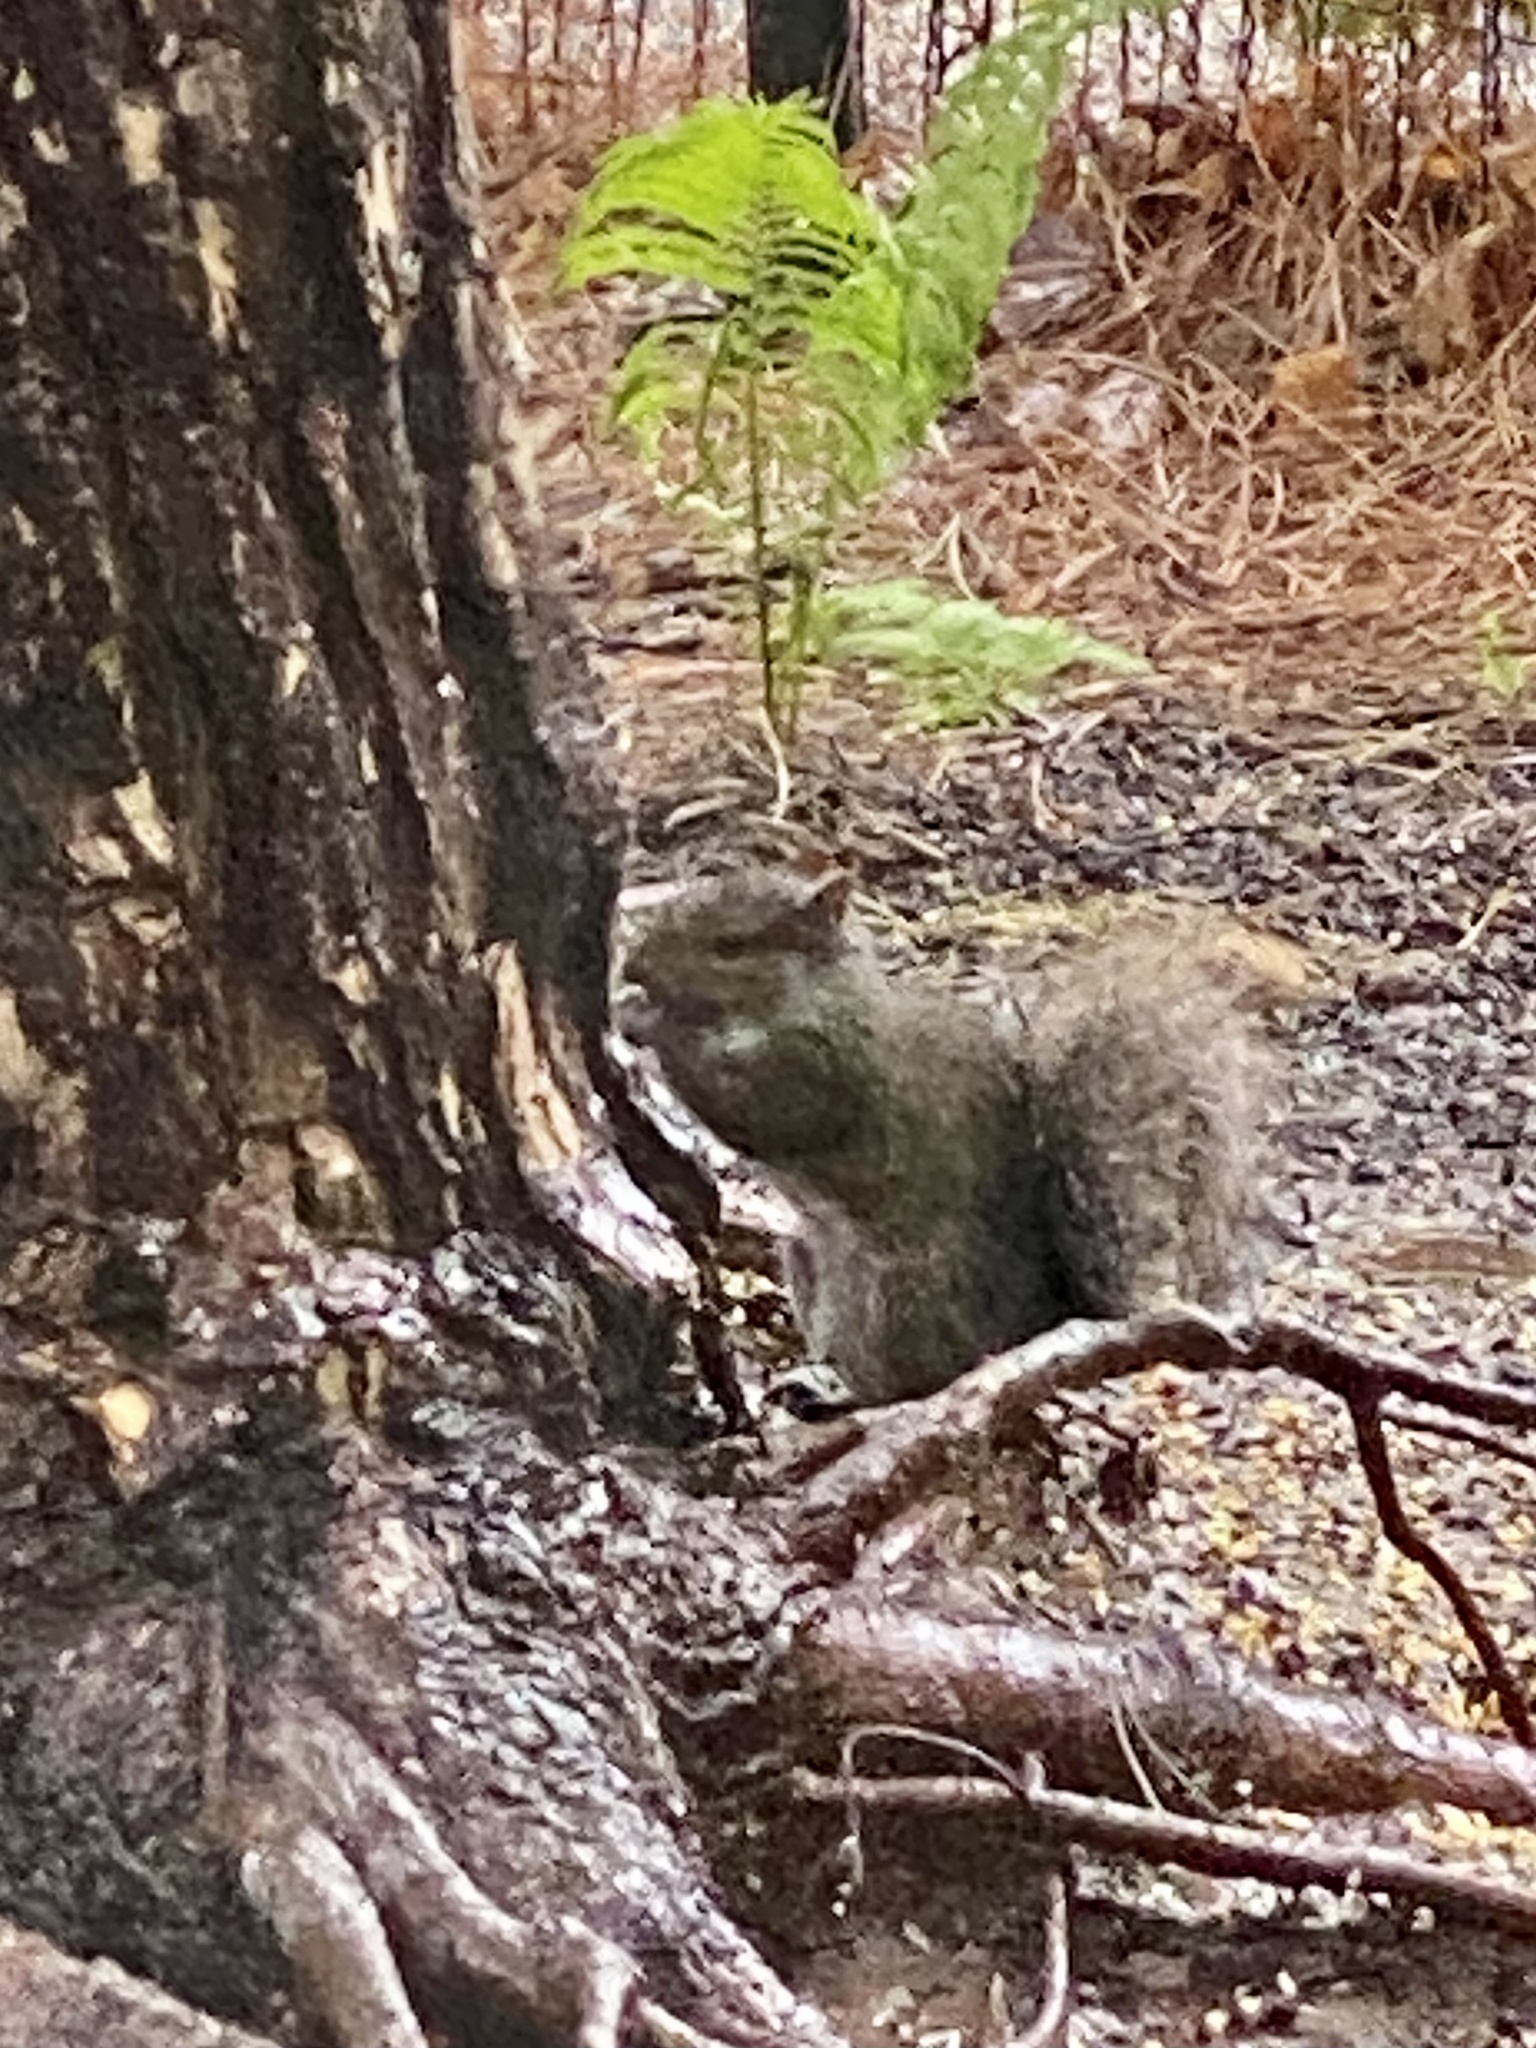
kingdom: Animalia
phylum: Chordata
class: Mammalia
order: Rodentia
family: Sciuridae
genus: Sciurus
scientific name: Sciurus carolinensis
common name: Eastern gray squirrel
